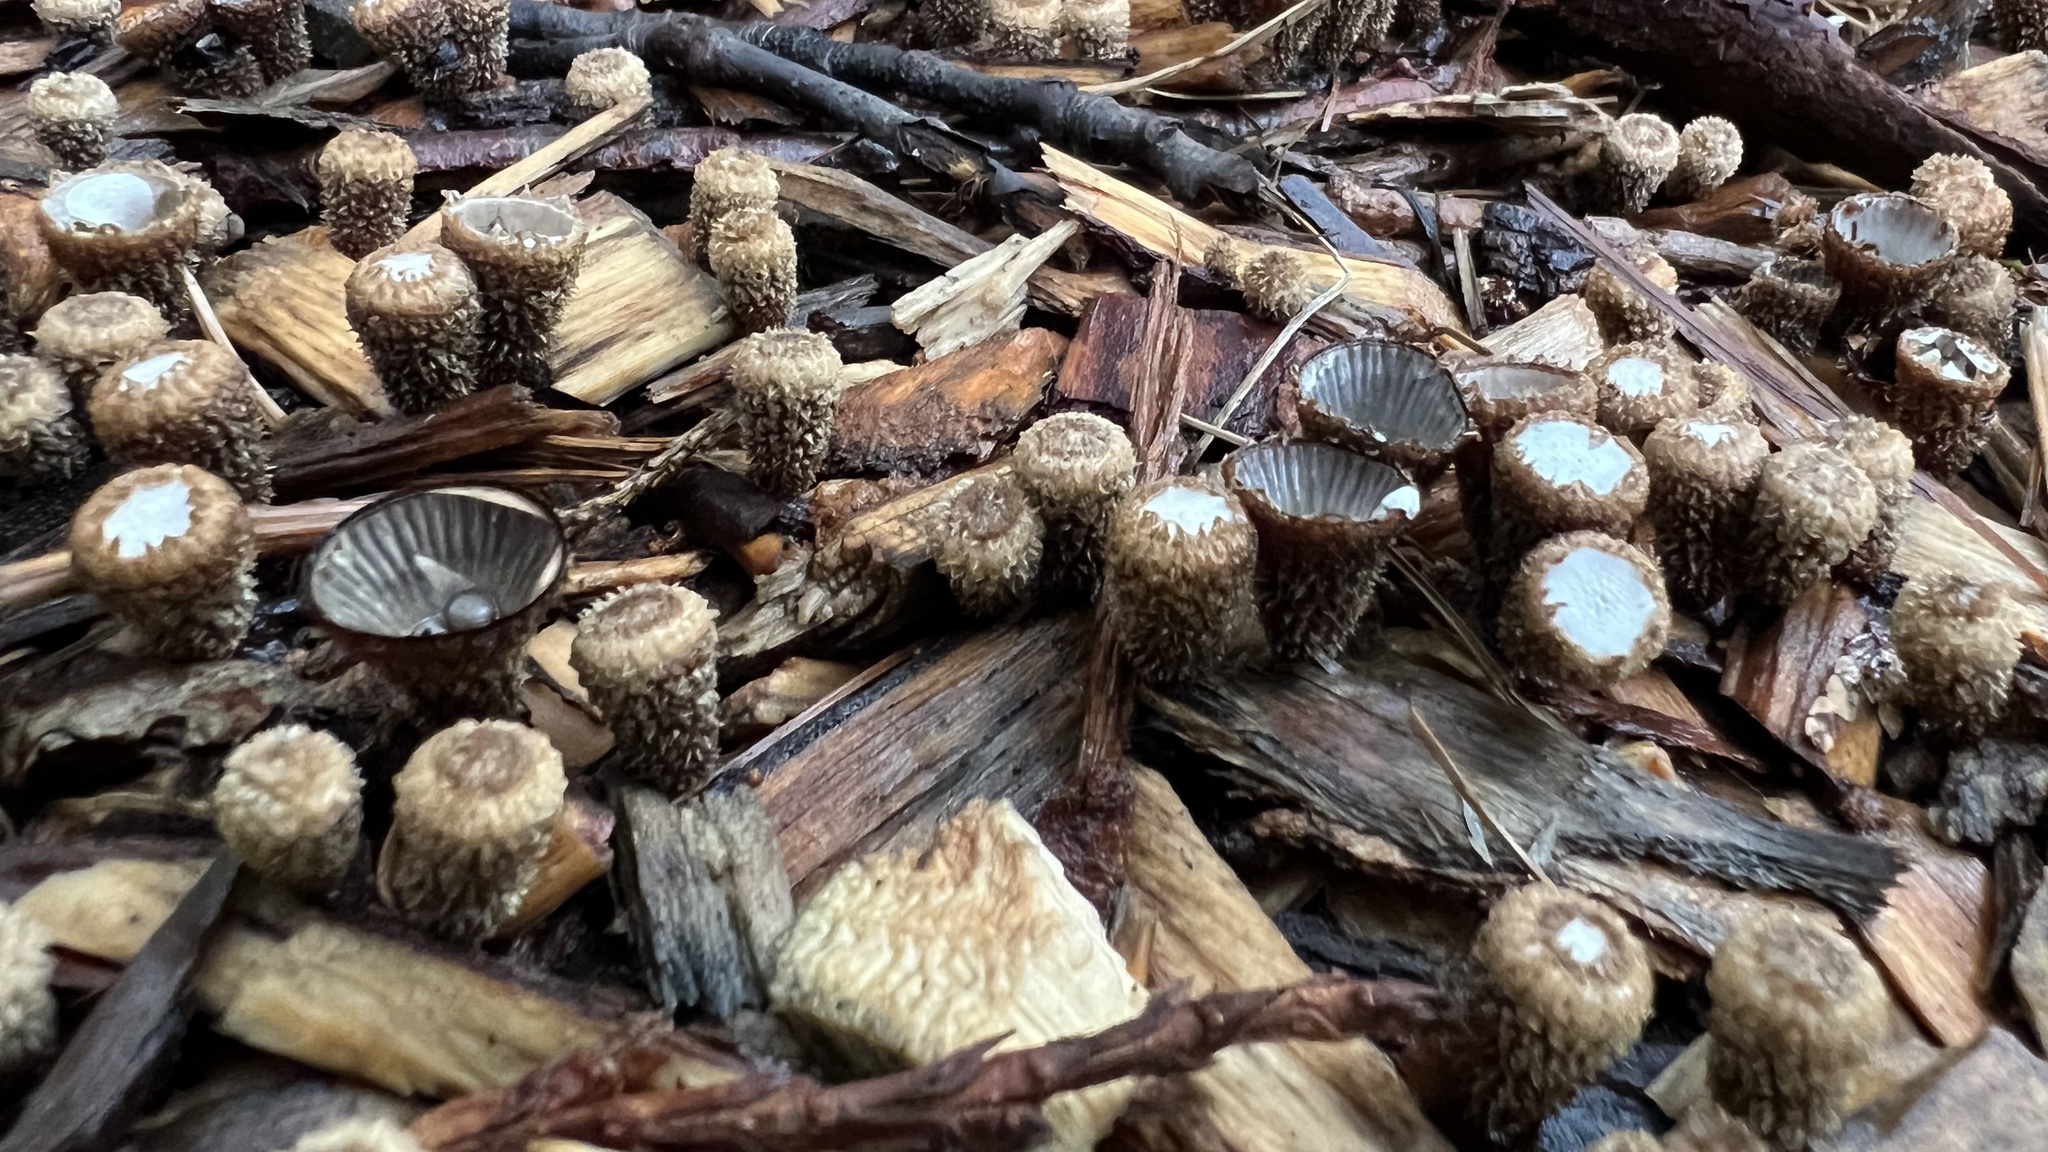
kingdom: Fungi
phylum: Basidiomycota
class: Agaricomycetes
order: Agaricales
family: Agaricaceae
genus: Cyathus
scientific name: Cyathus striatus
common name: Fluted bird's nest
